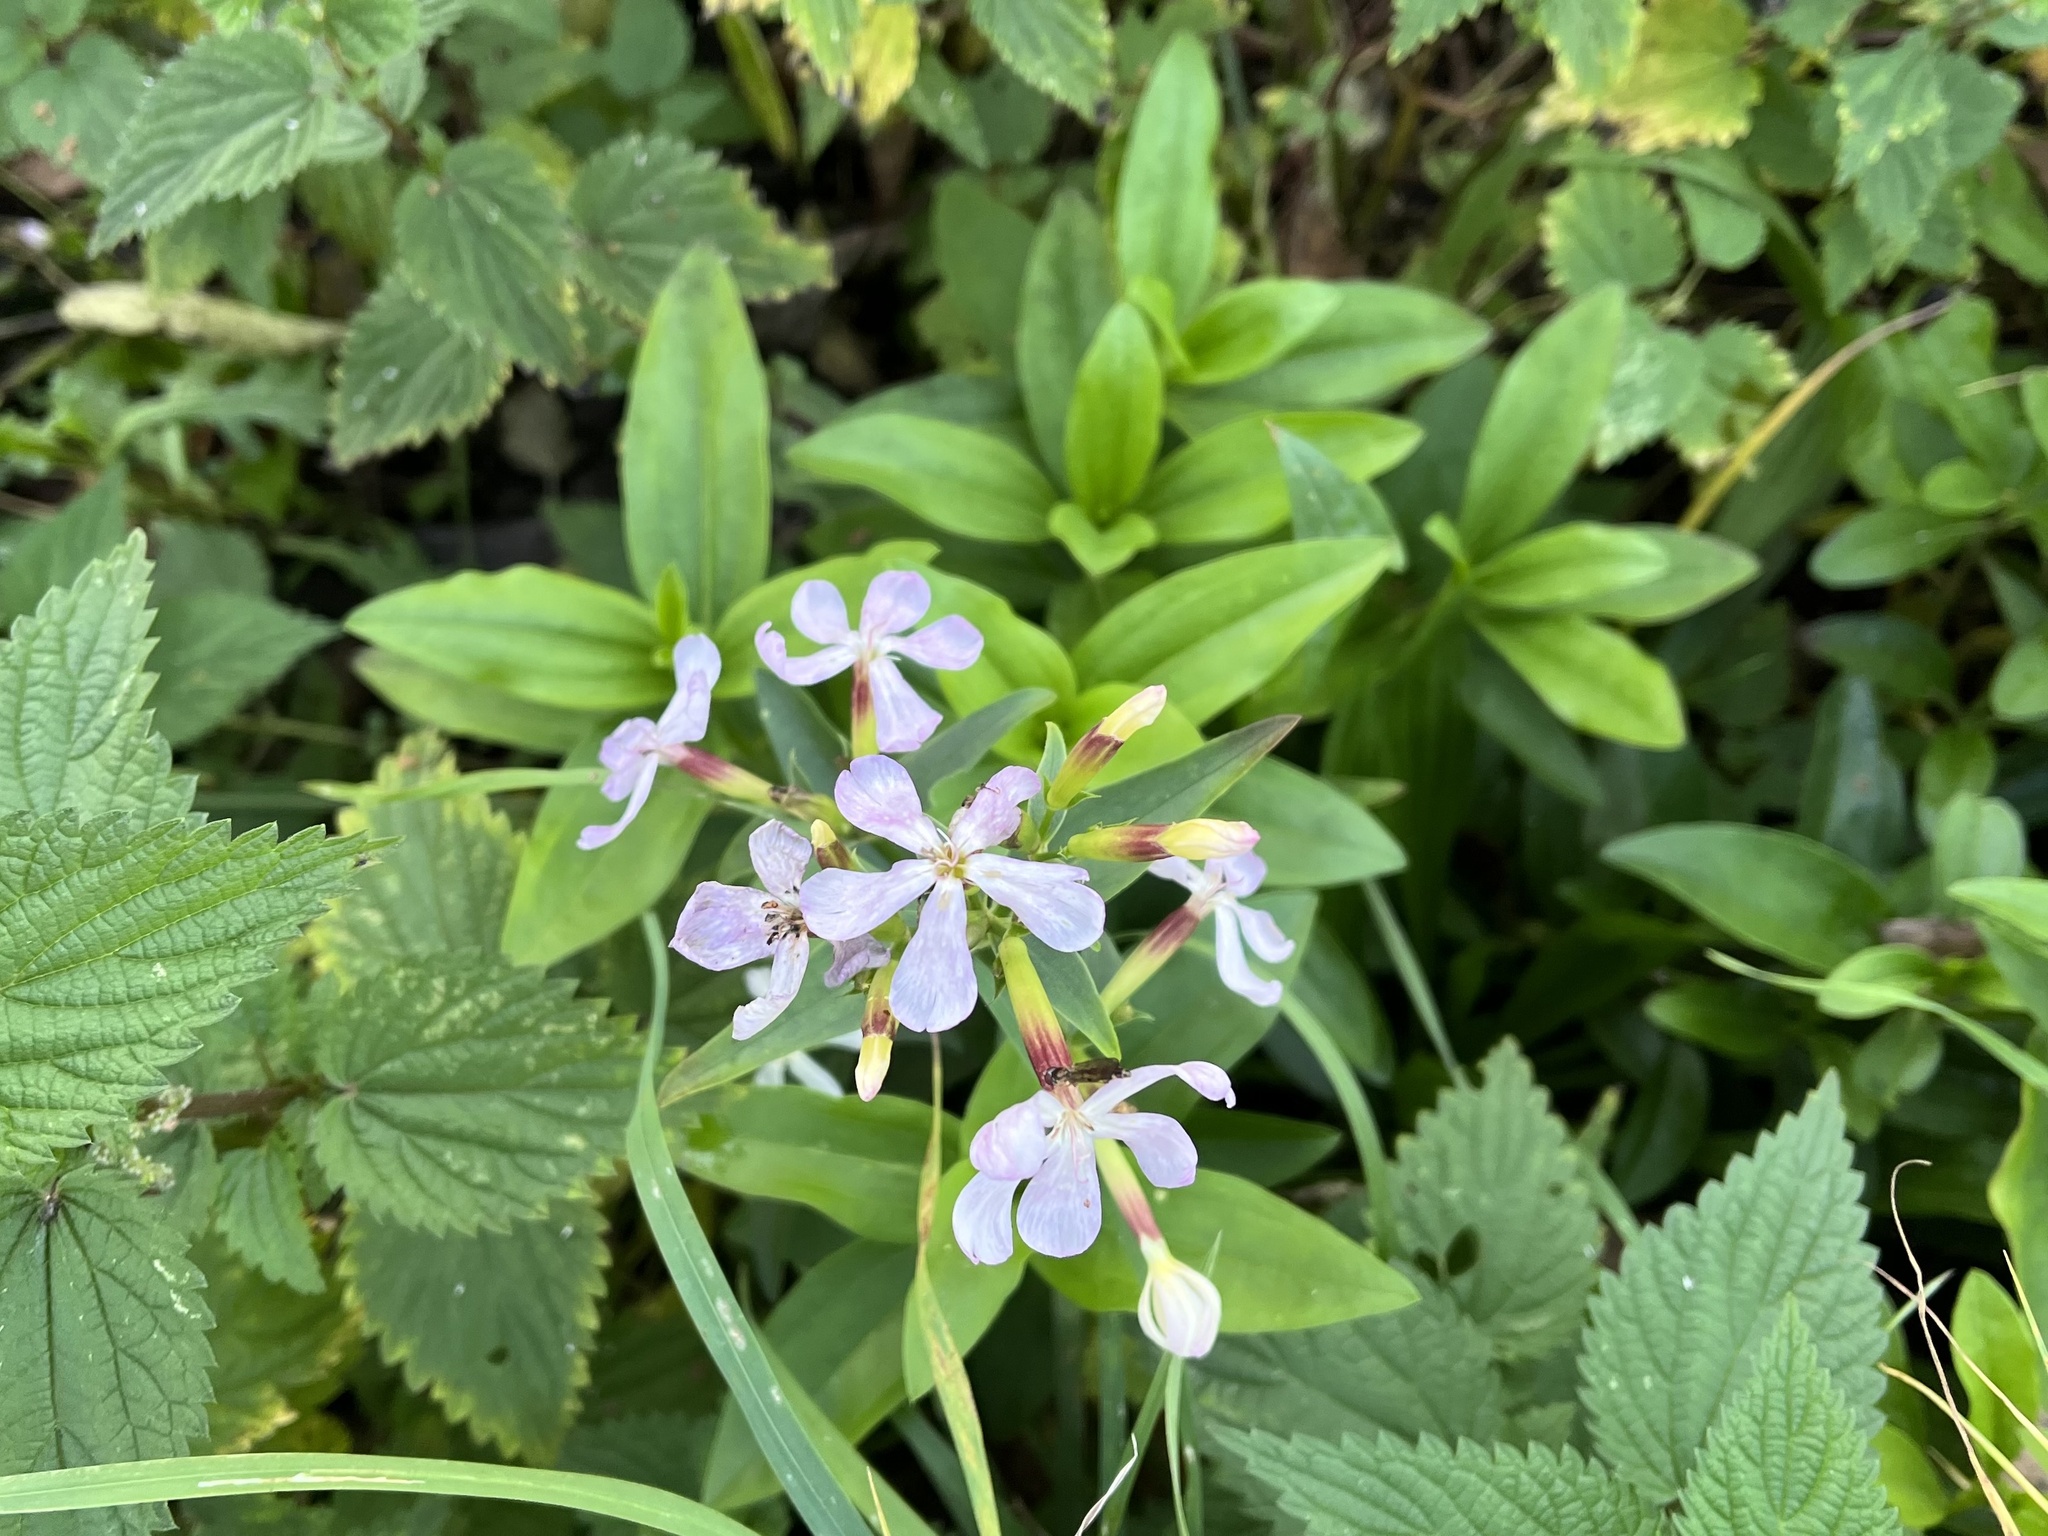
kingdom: Plantae
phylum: Tracheophyta
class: Magnoliopsida
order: Caryophyllales
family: Caryophyllaceae
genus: Saponaria
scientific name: Saponaria officinalis
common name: Soapwort
